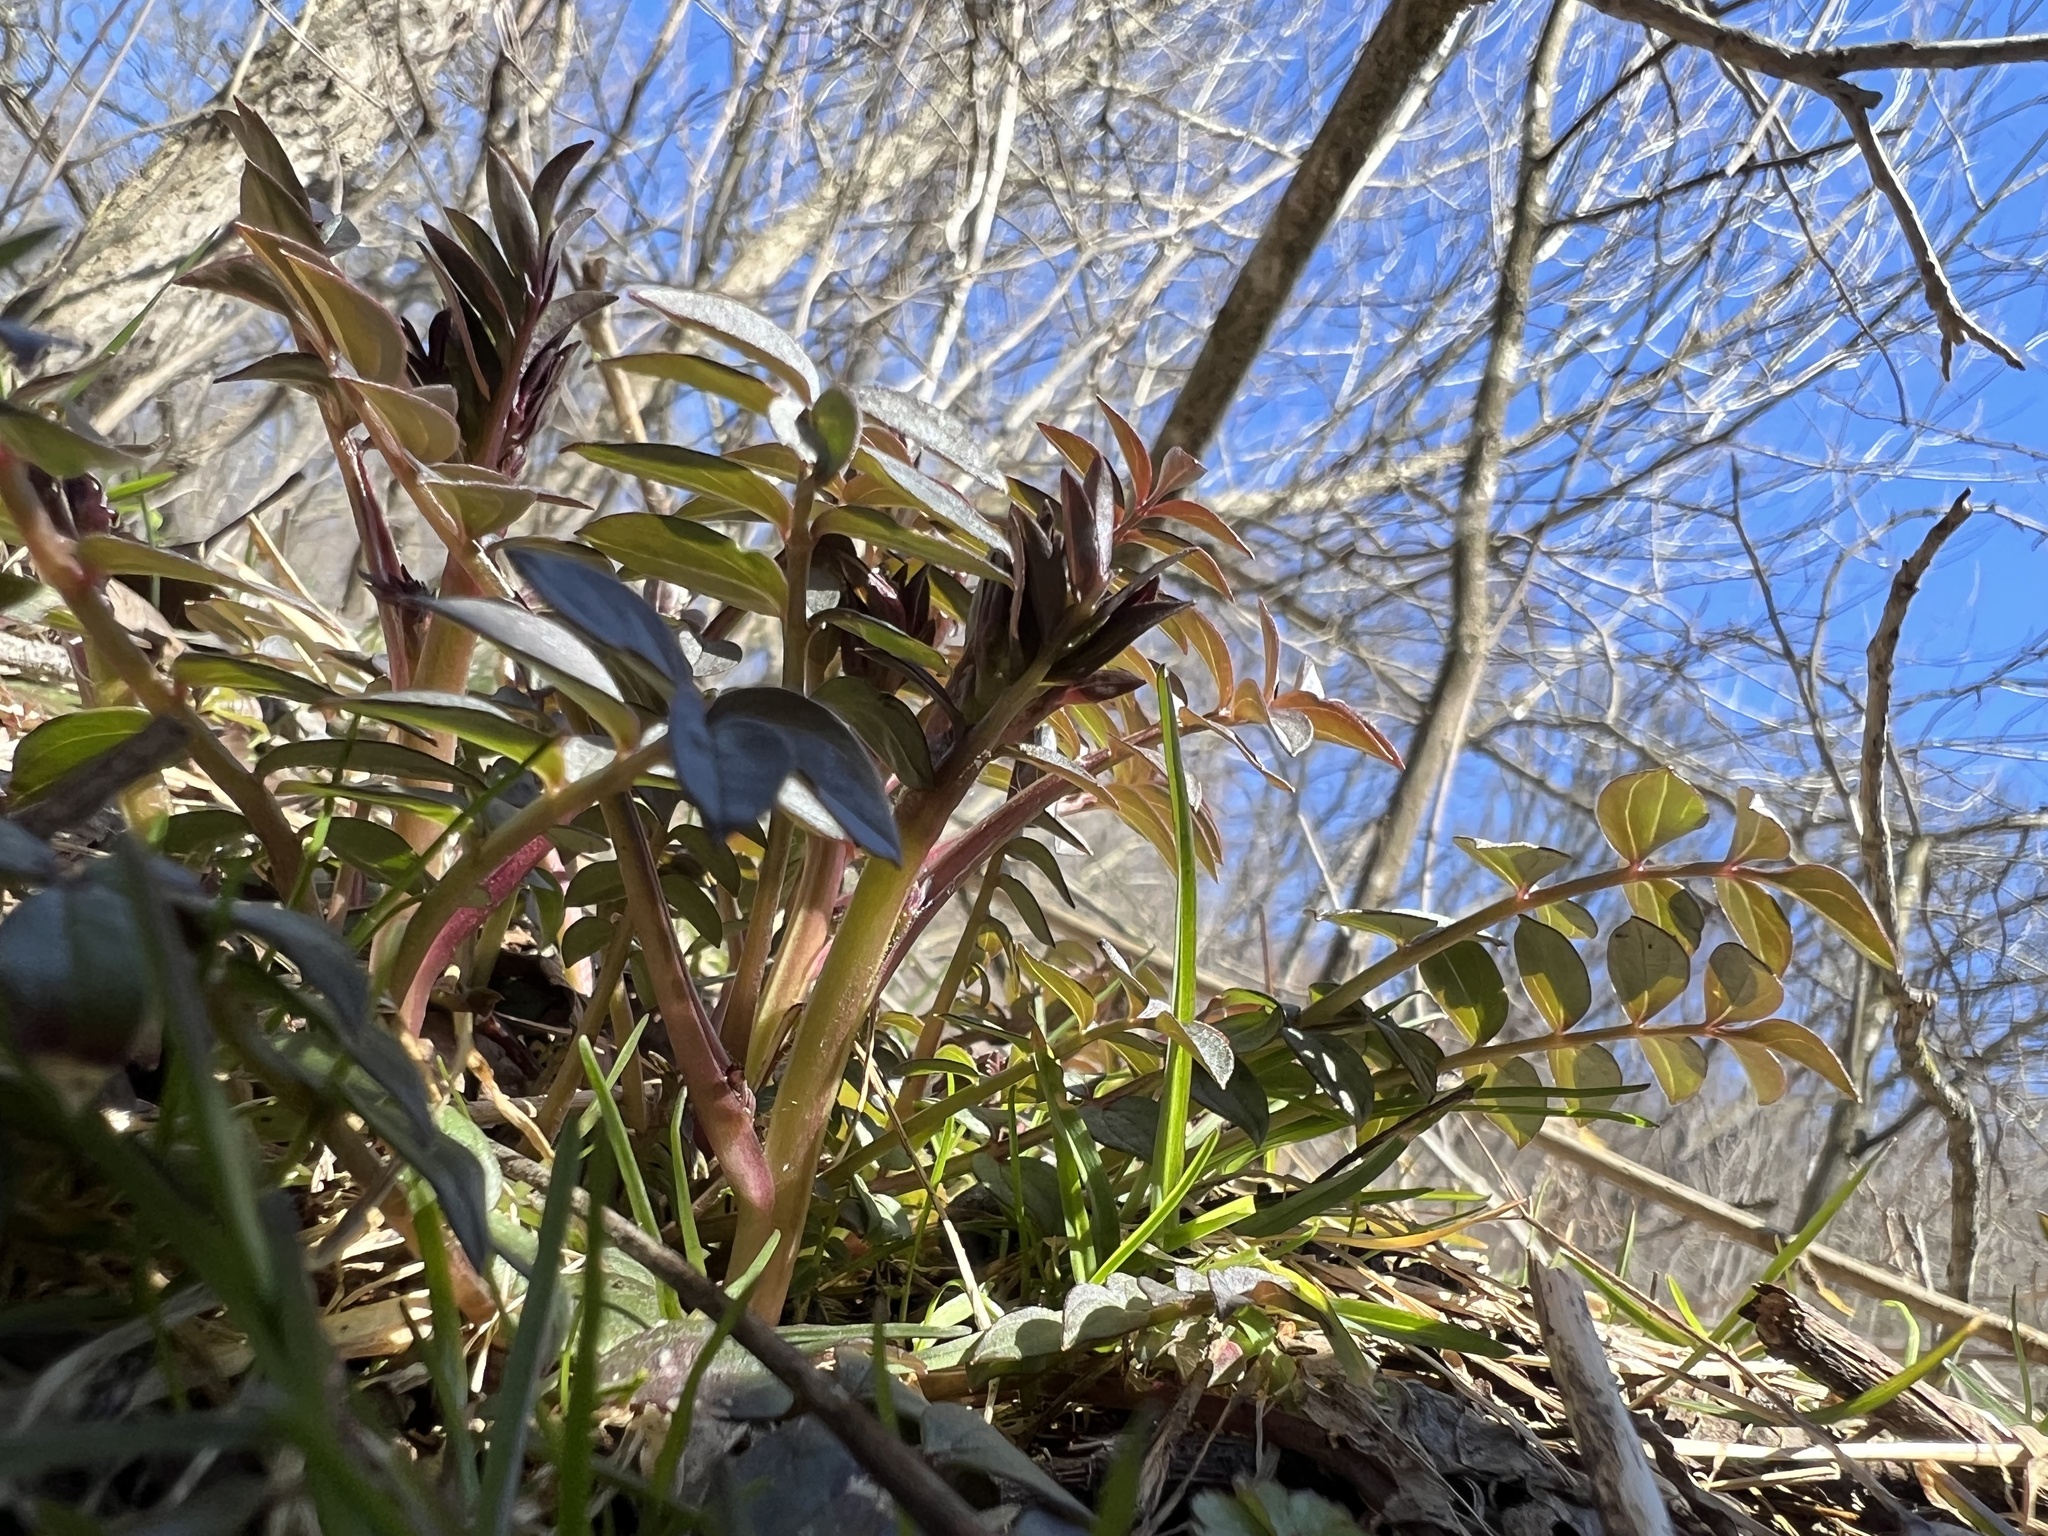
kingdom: Plantae
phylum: Tracheophyta
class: Magnoliopsida
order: Ericales
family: Polemoniaceae
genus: Polemonium
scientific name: Polemonium reptans
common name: Creeping jacob's-ladder
